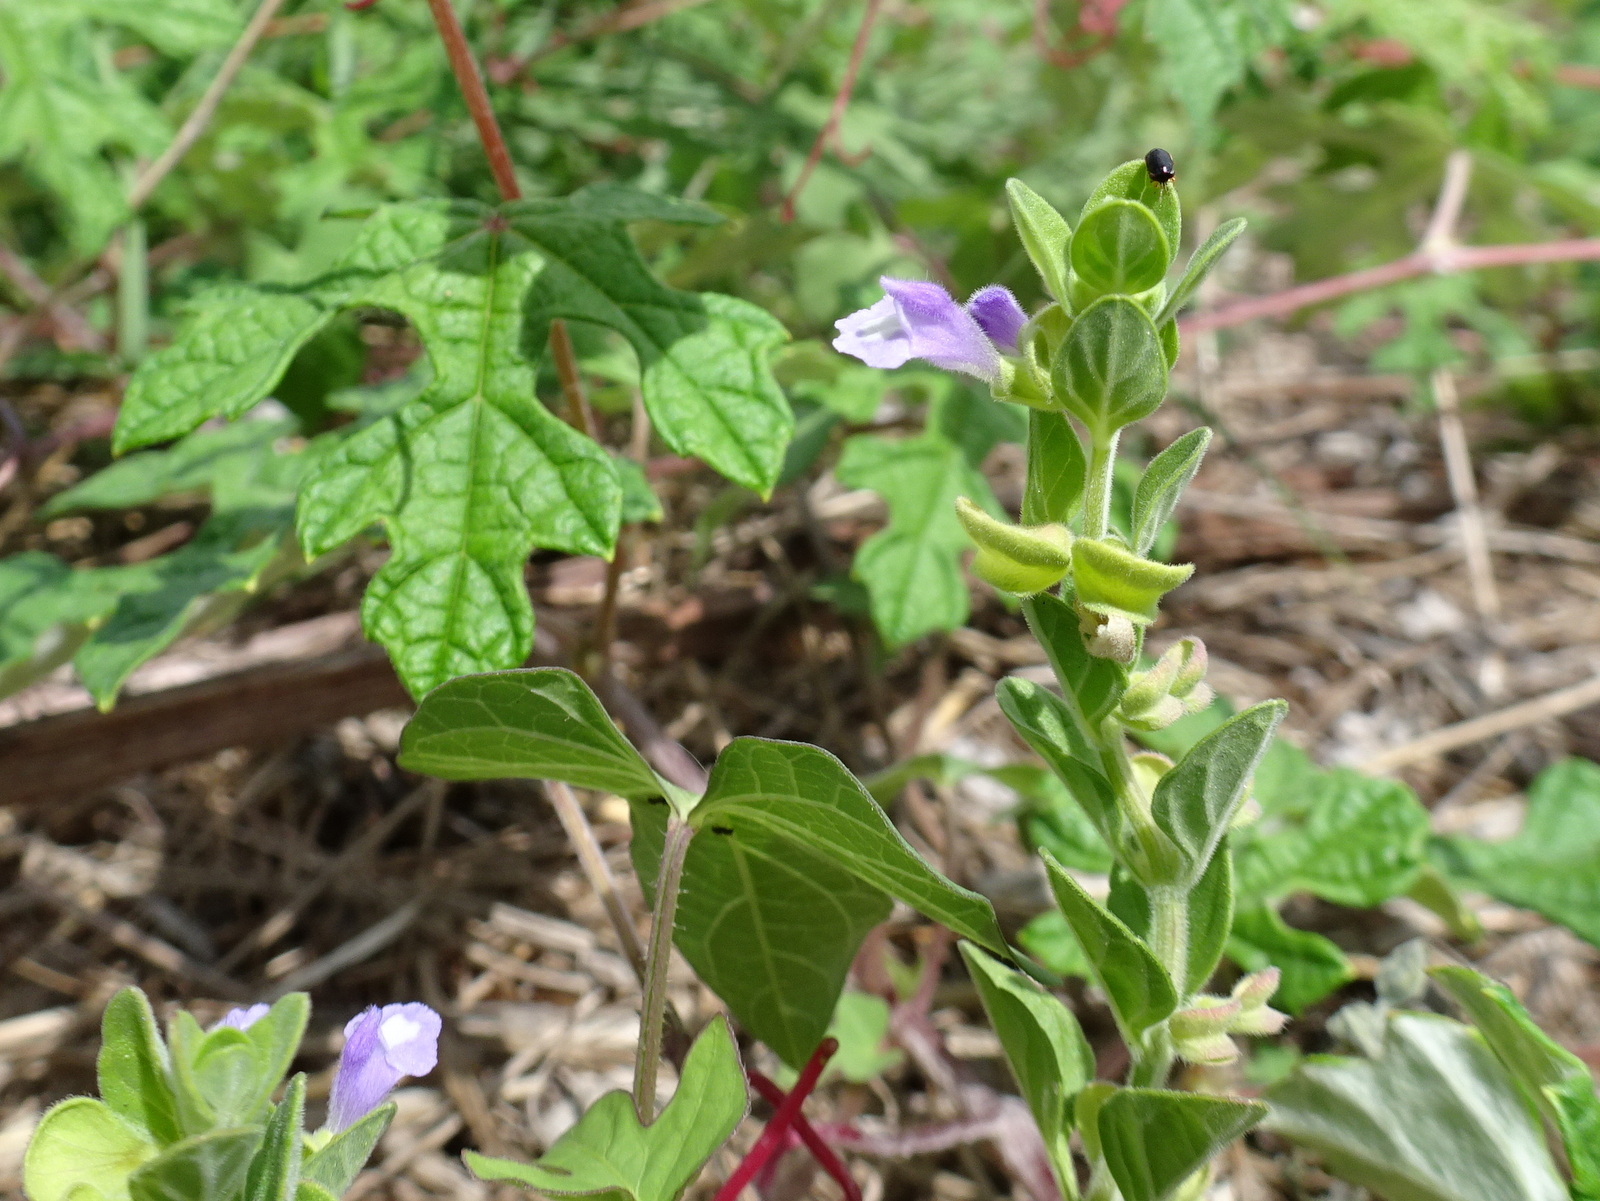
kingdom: Plantae
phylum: Tracheophyta
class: Magnoliopsida
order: Lamiales
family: Lamiaceae
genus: Scutellaria
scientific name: Scutellaria drummondii
